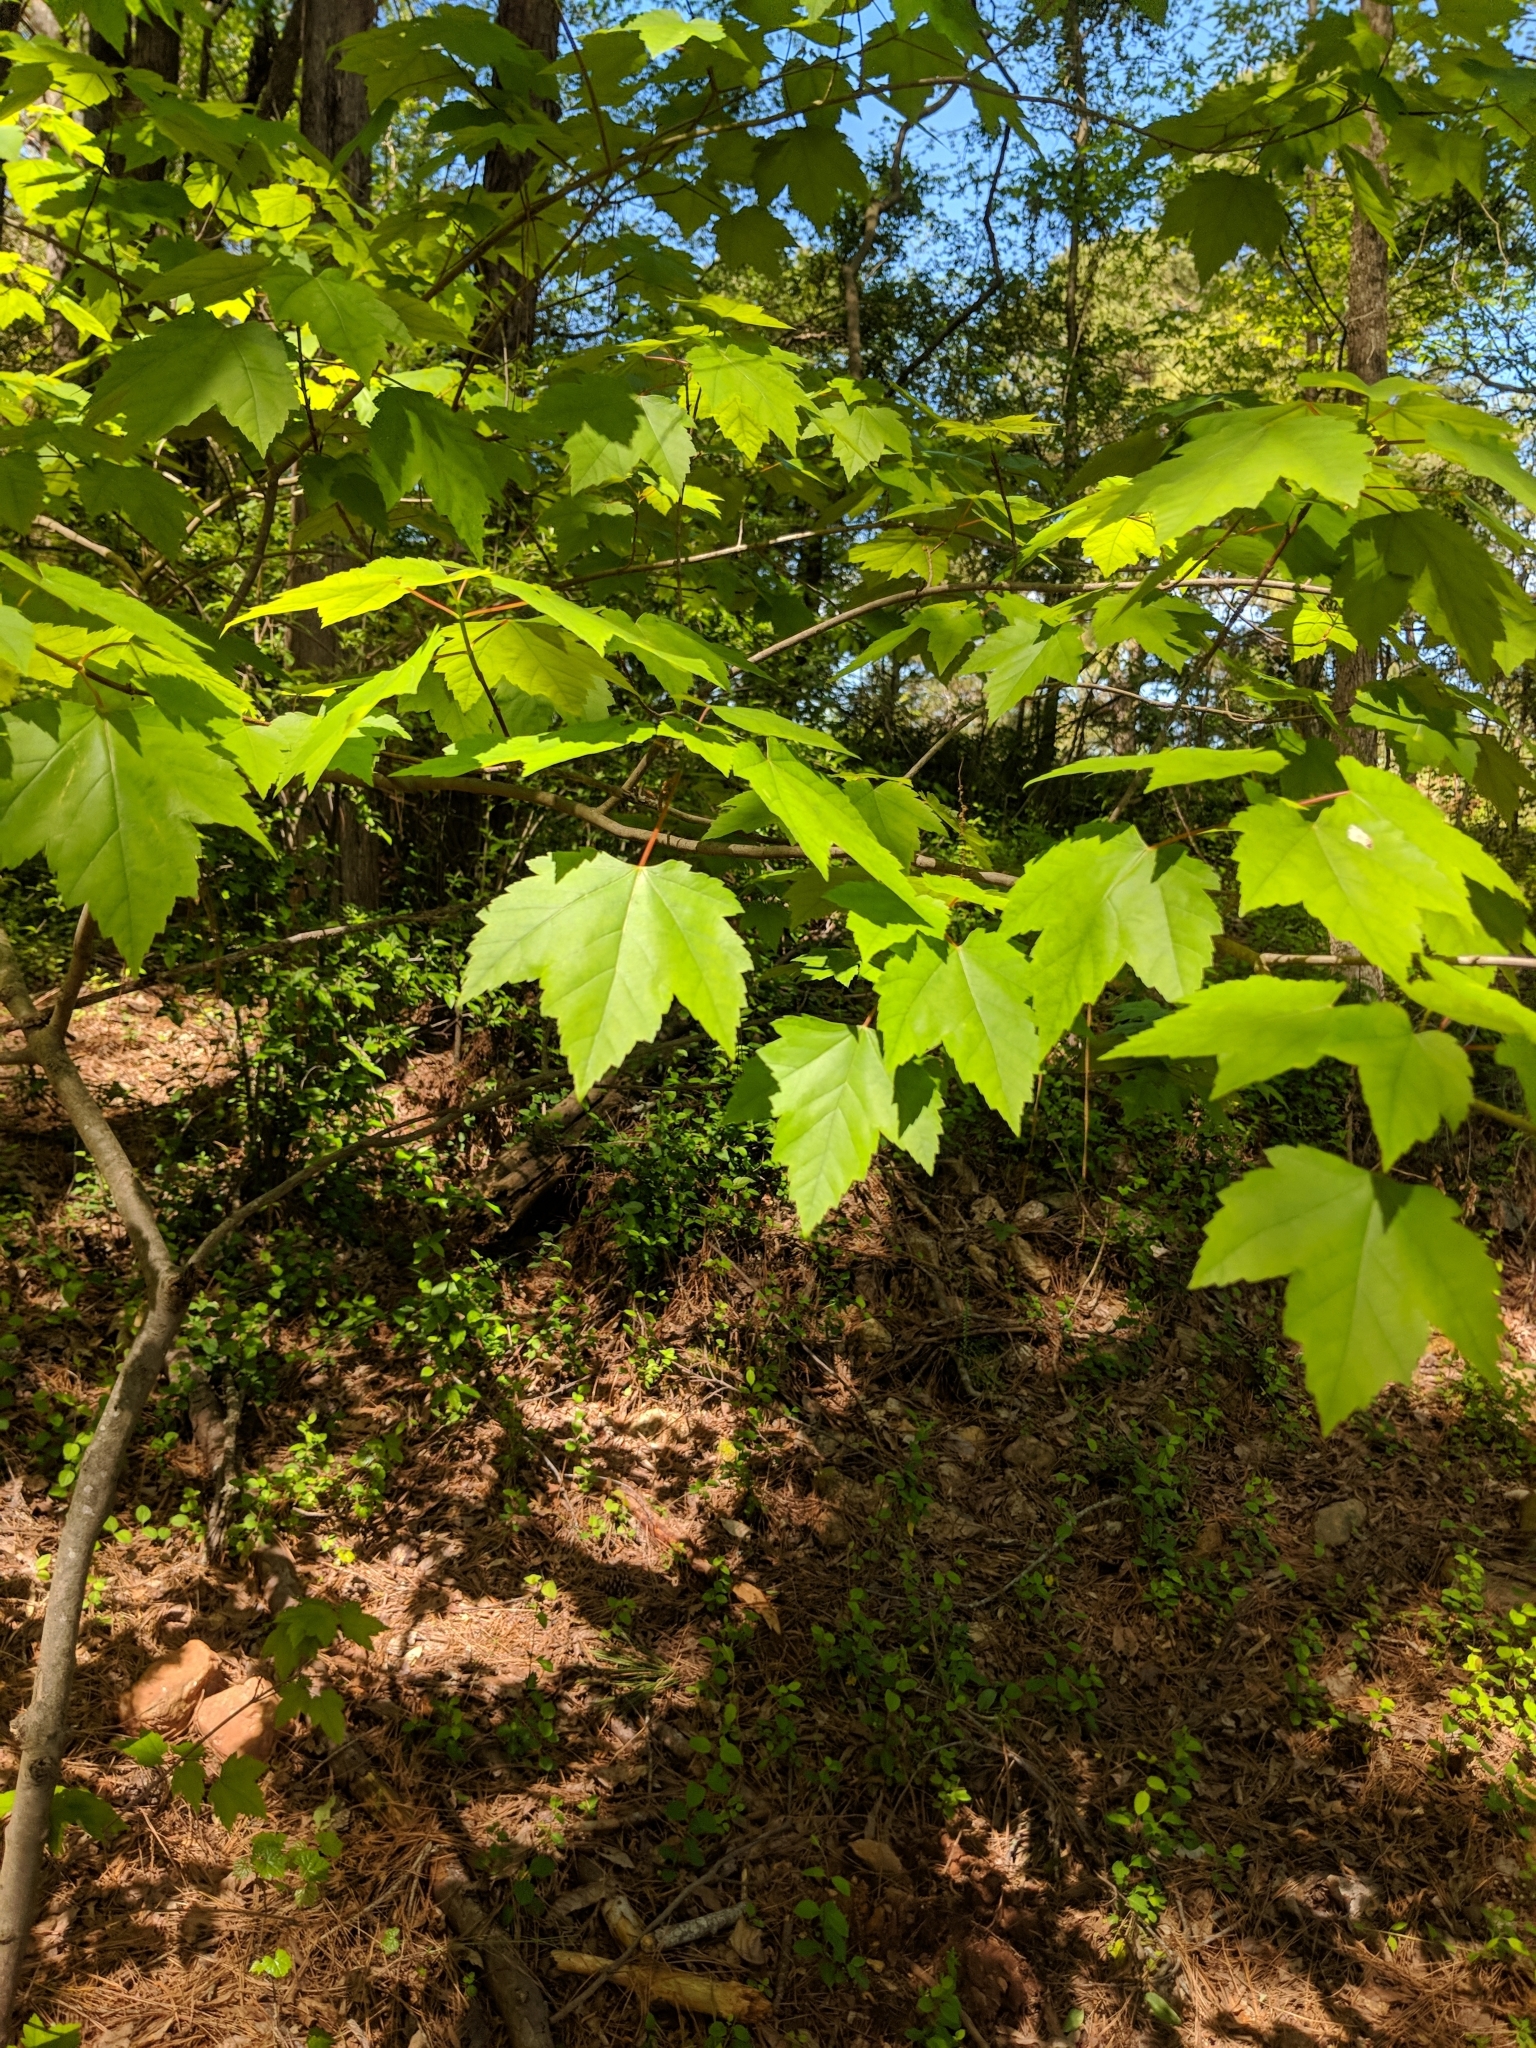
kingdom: Plantae
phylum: Tracheophyta
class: Magnoliopsida
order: Sapindales
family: Sapindaceae
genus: Acer
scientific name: Acer rubrum
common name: Red maple
